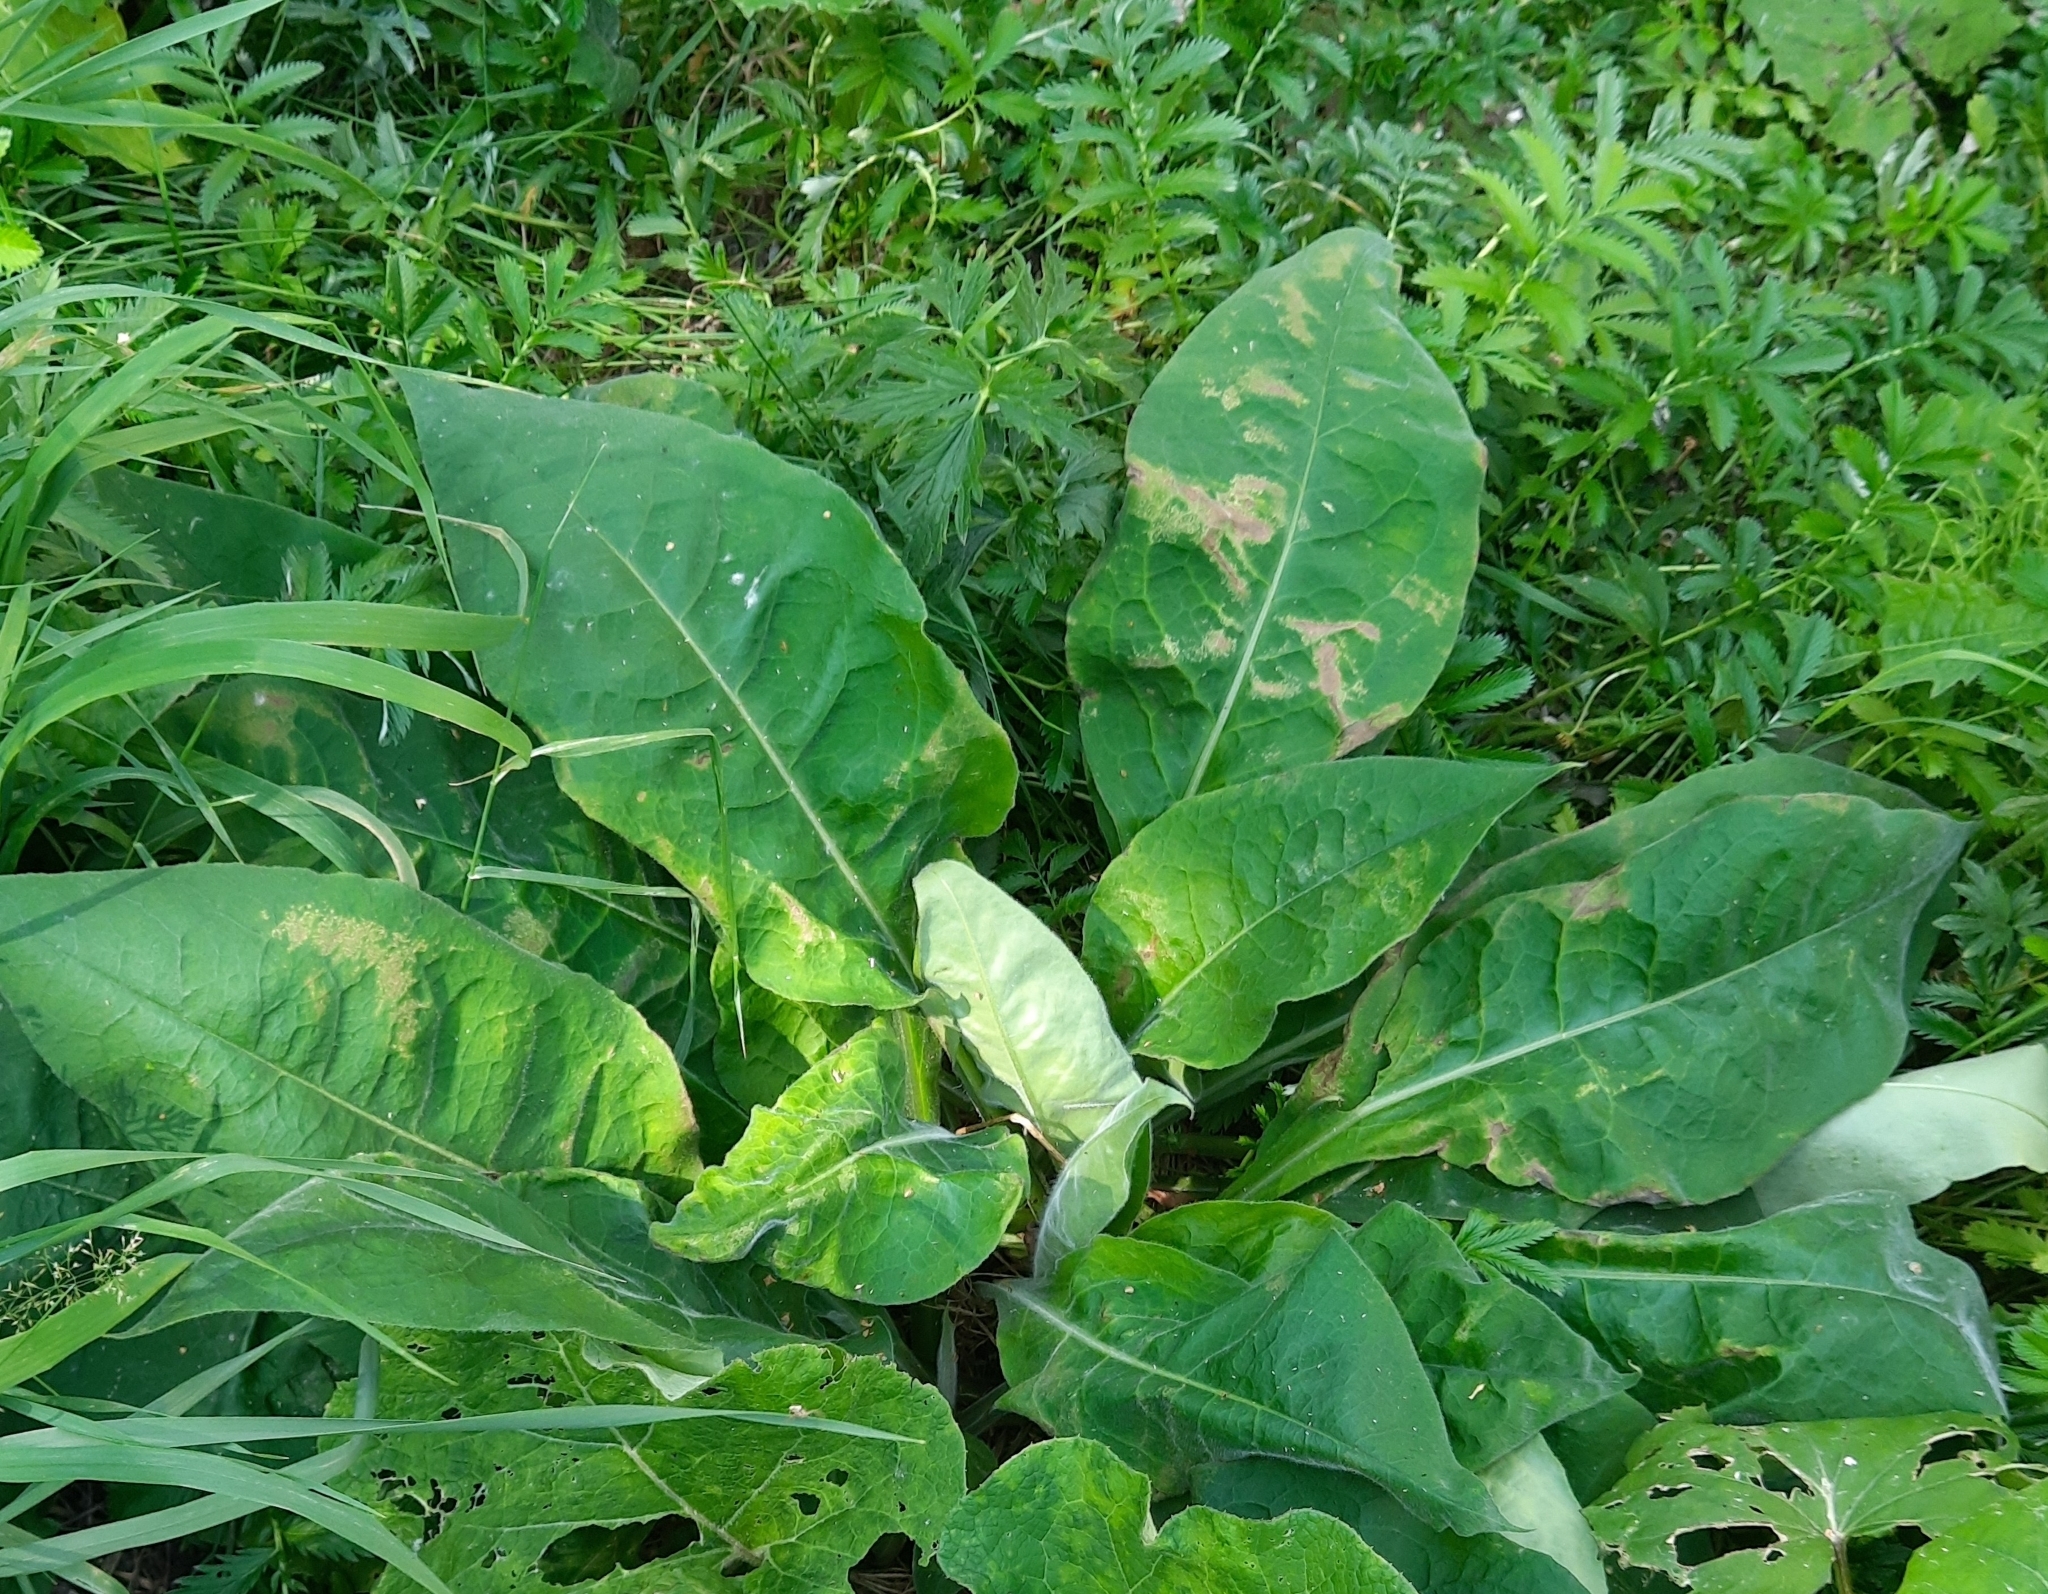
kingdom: Plantae
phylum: Tracheophyta
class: Magnoliopsida
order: Boraginales
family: Boraginaceae
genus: Pulmonaria
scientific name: Pulmonaria mollis
